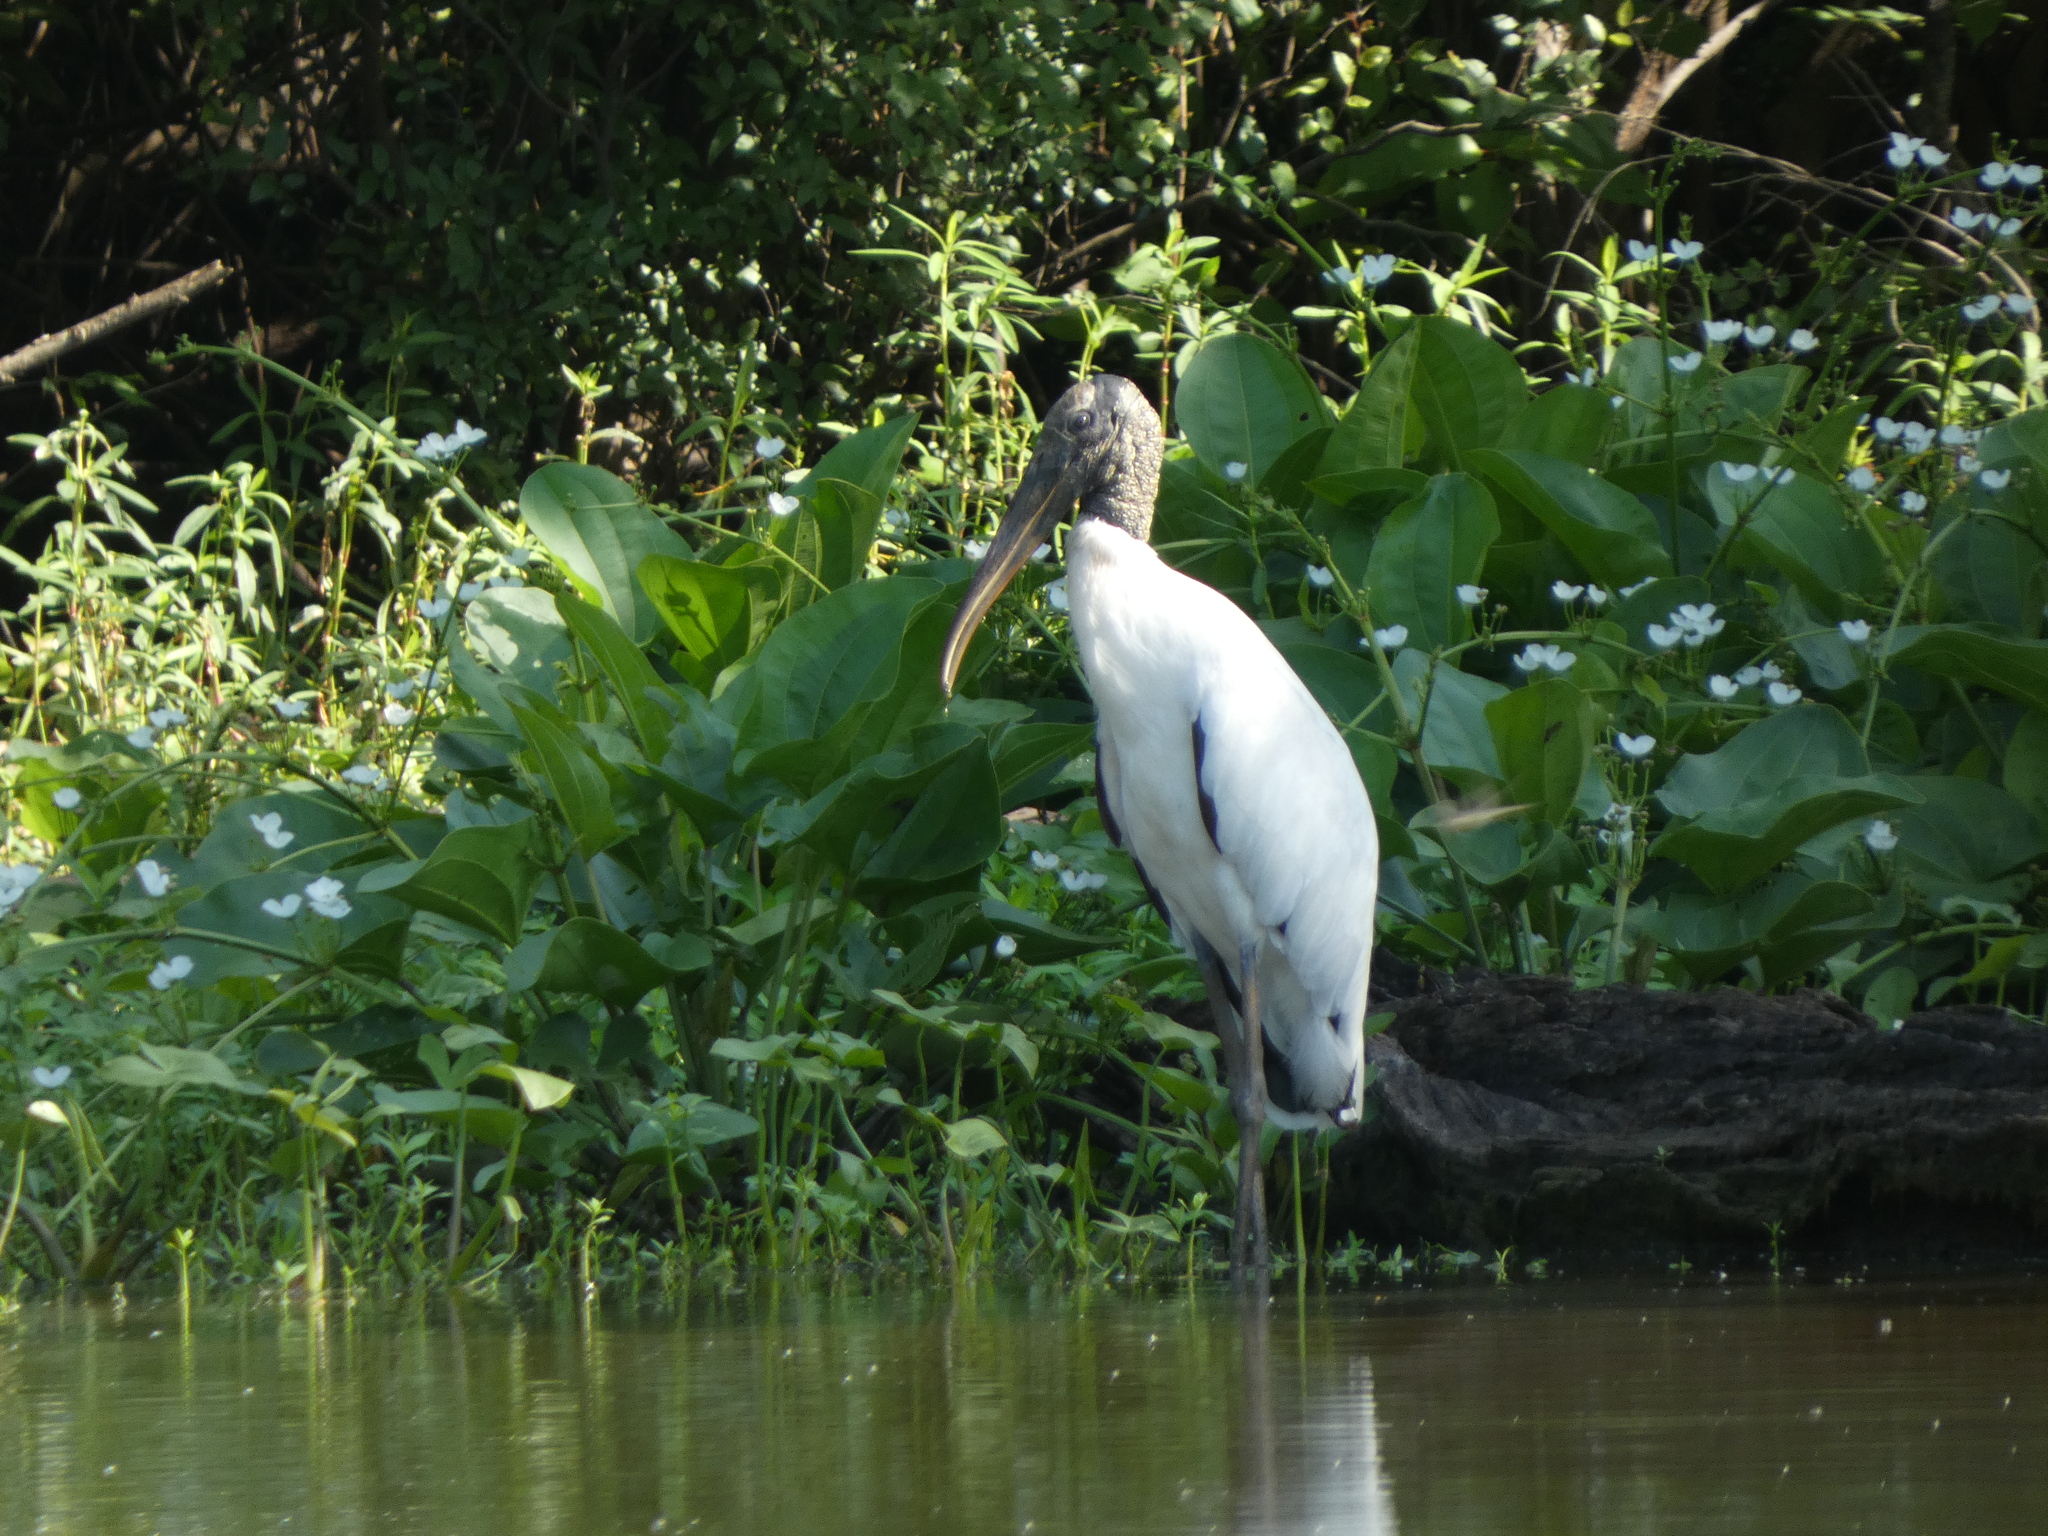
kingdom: Animalia
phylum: Chordata
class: Aves
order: Ciconiiformes
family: Ciconiidae
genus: Mycteria
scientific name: Mycteria americana
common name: Wood stork
